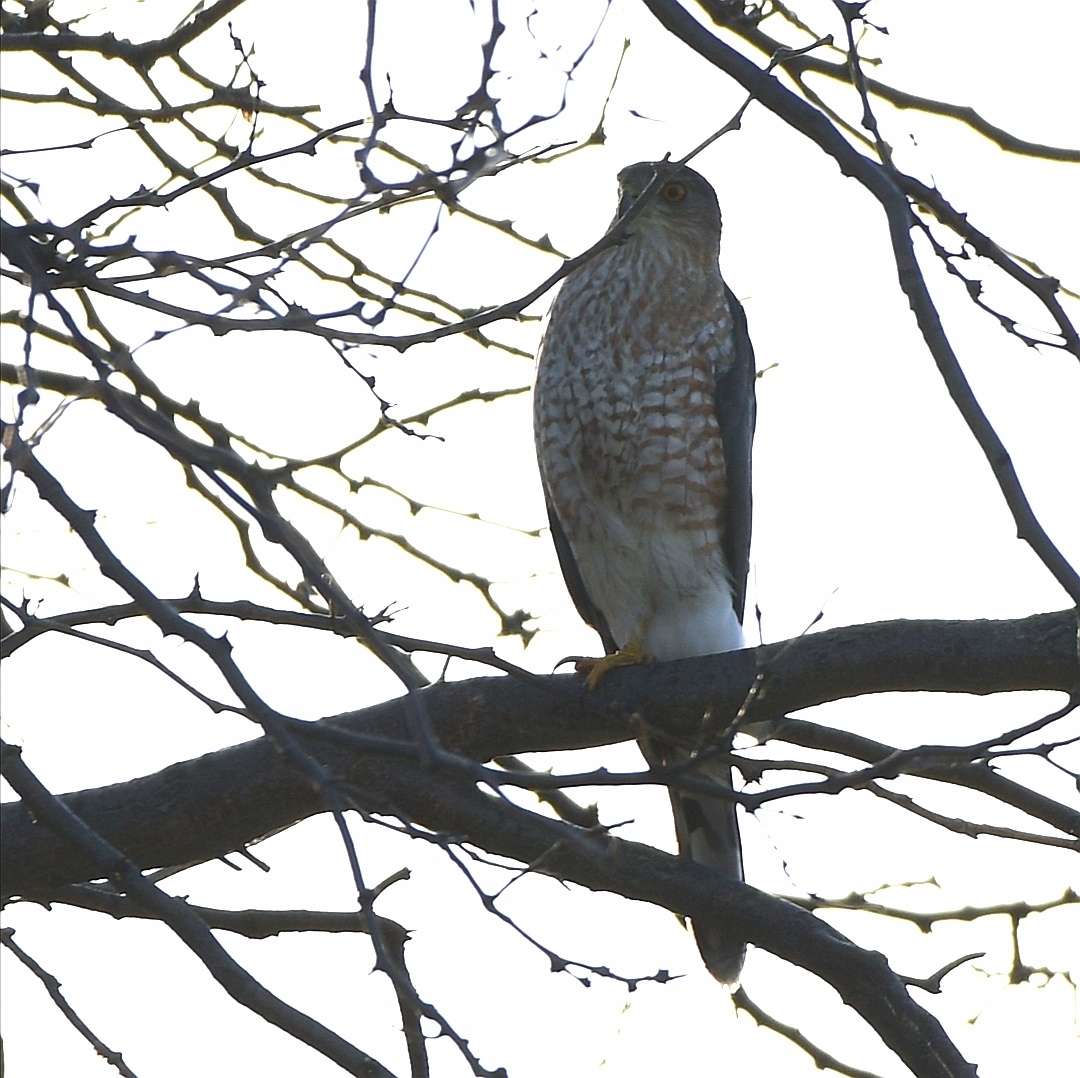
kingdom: Animalia
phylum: Chordata
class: Aves
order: Accipitriformes
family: Accipitridae
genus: Accipiter
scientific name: Accipiter cooperii
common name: Cooper's hawk
